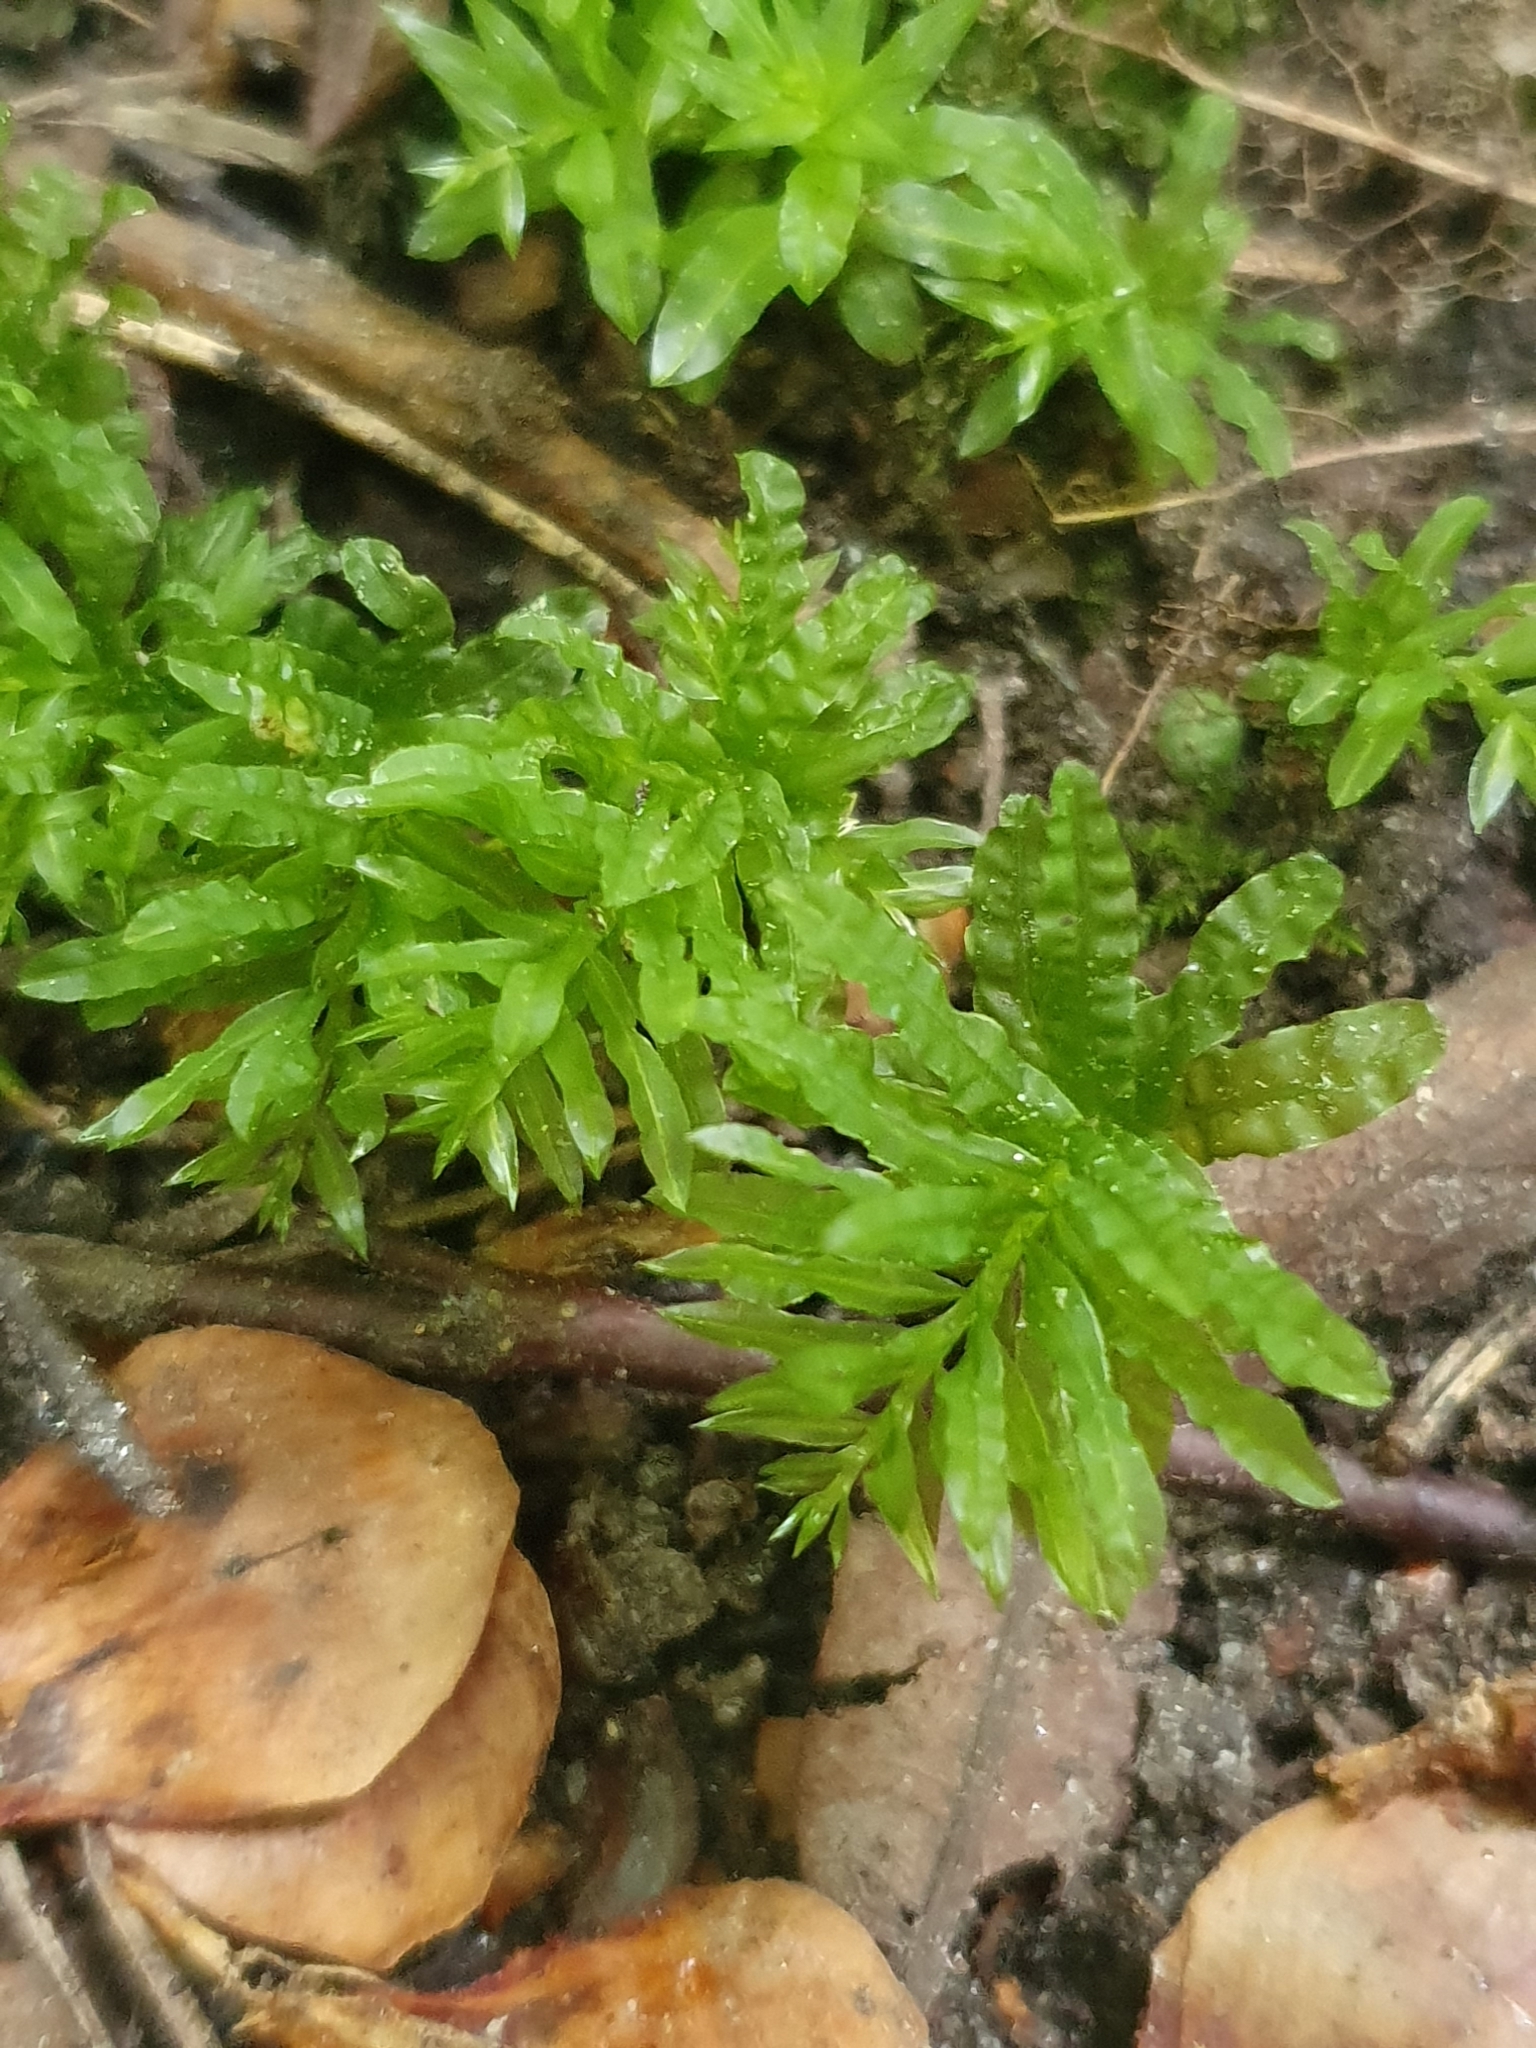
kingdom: Plantae
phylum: Bryophyta
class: Bryopsida
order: Bryales
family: Mniaceae
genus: Plagiomnium
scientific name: Plagiomnium undulatum
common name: Hart's-tongue thyme-moss
